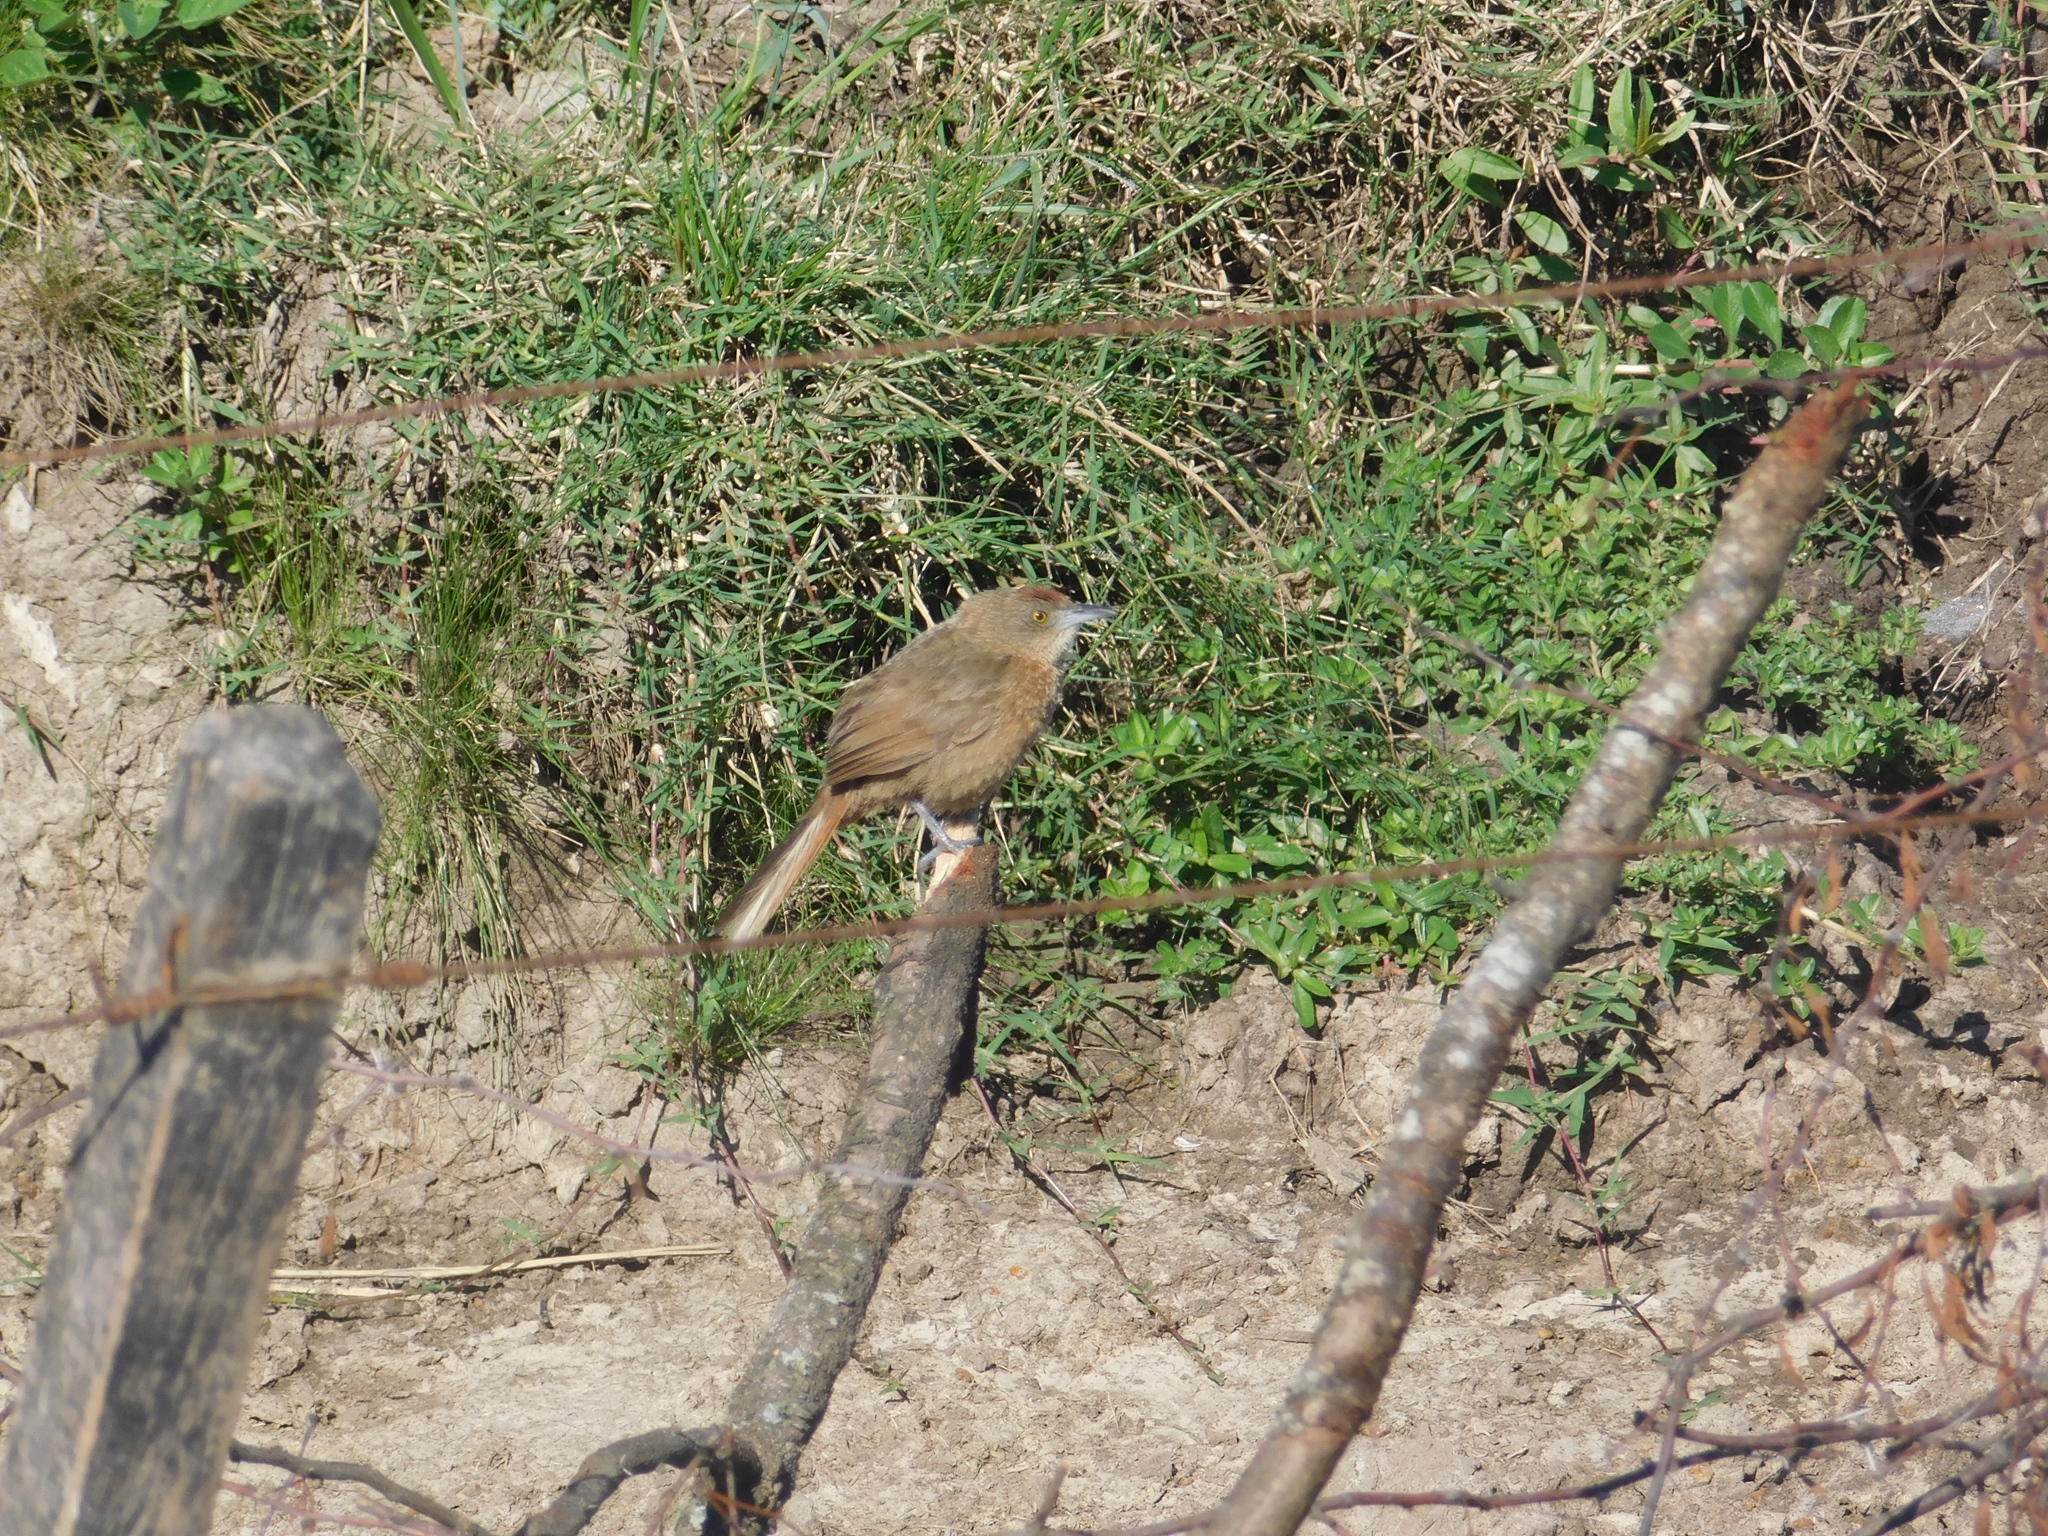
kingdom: Animalia
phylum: Chordata
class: Aves
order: Passeriformes
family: Furnariidae
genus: Phacellodomus
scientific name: Phacellodomus striaticollis
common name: Freckle-breasted thornbird
